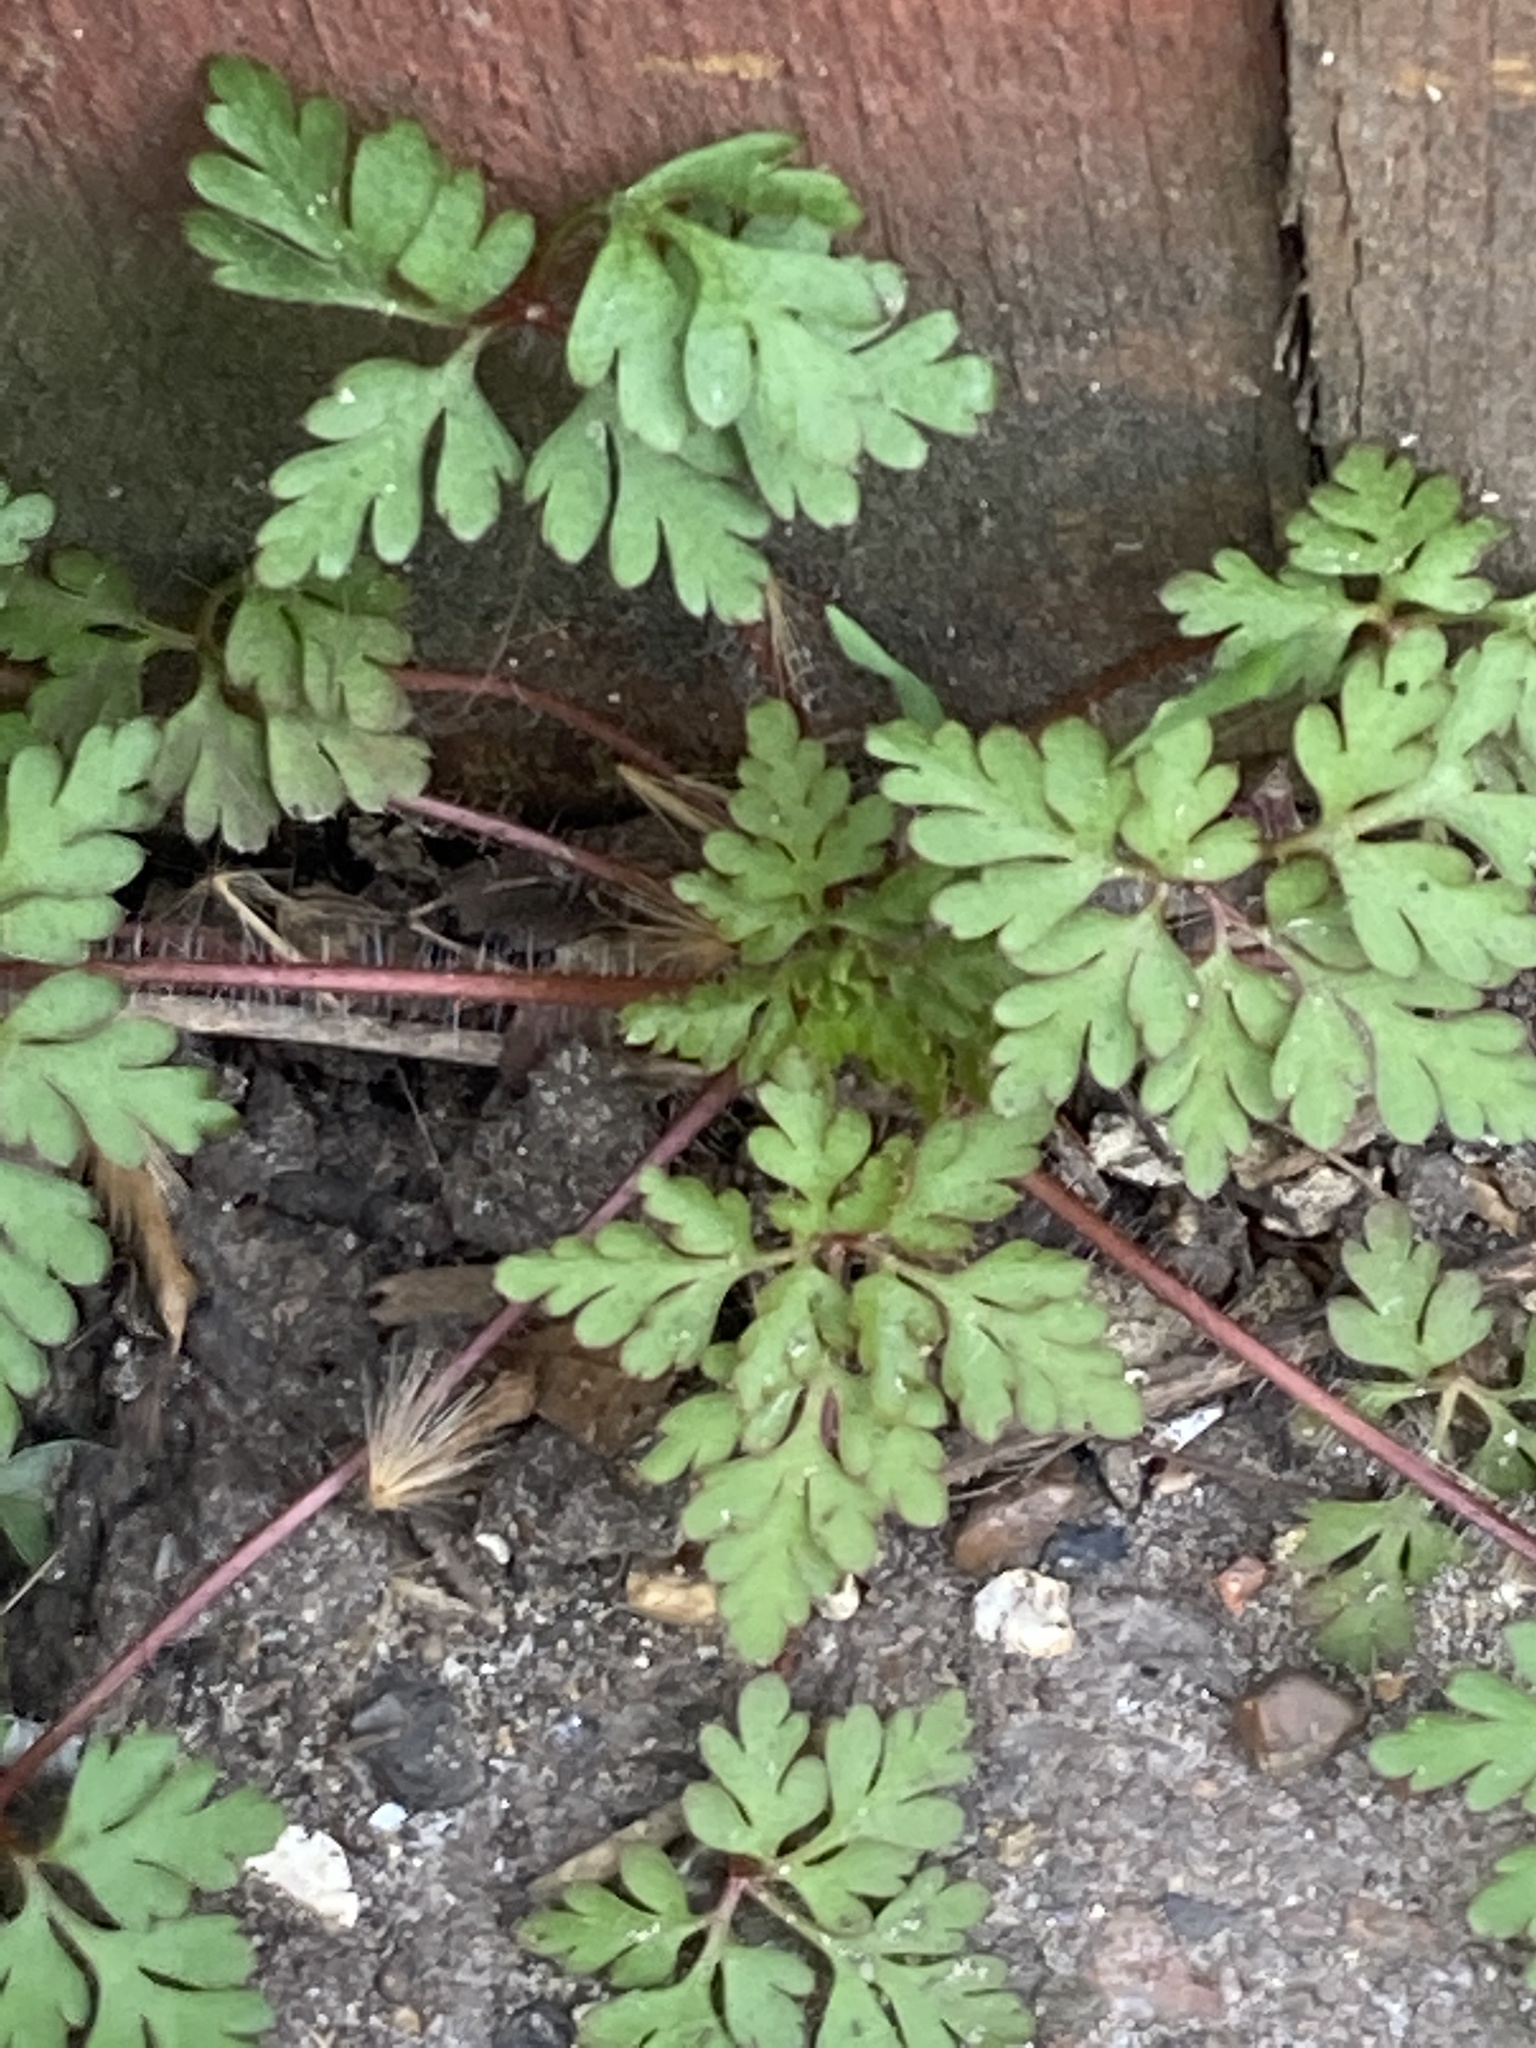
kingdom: Plantae
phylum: Tracheophyta
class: Magnoliopsida
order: Geraniales
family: Geraniaceae
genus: Geranium
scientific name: Geranium robertianum
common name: Herb-robert
